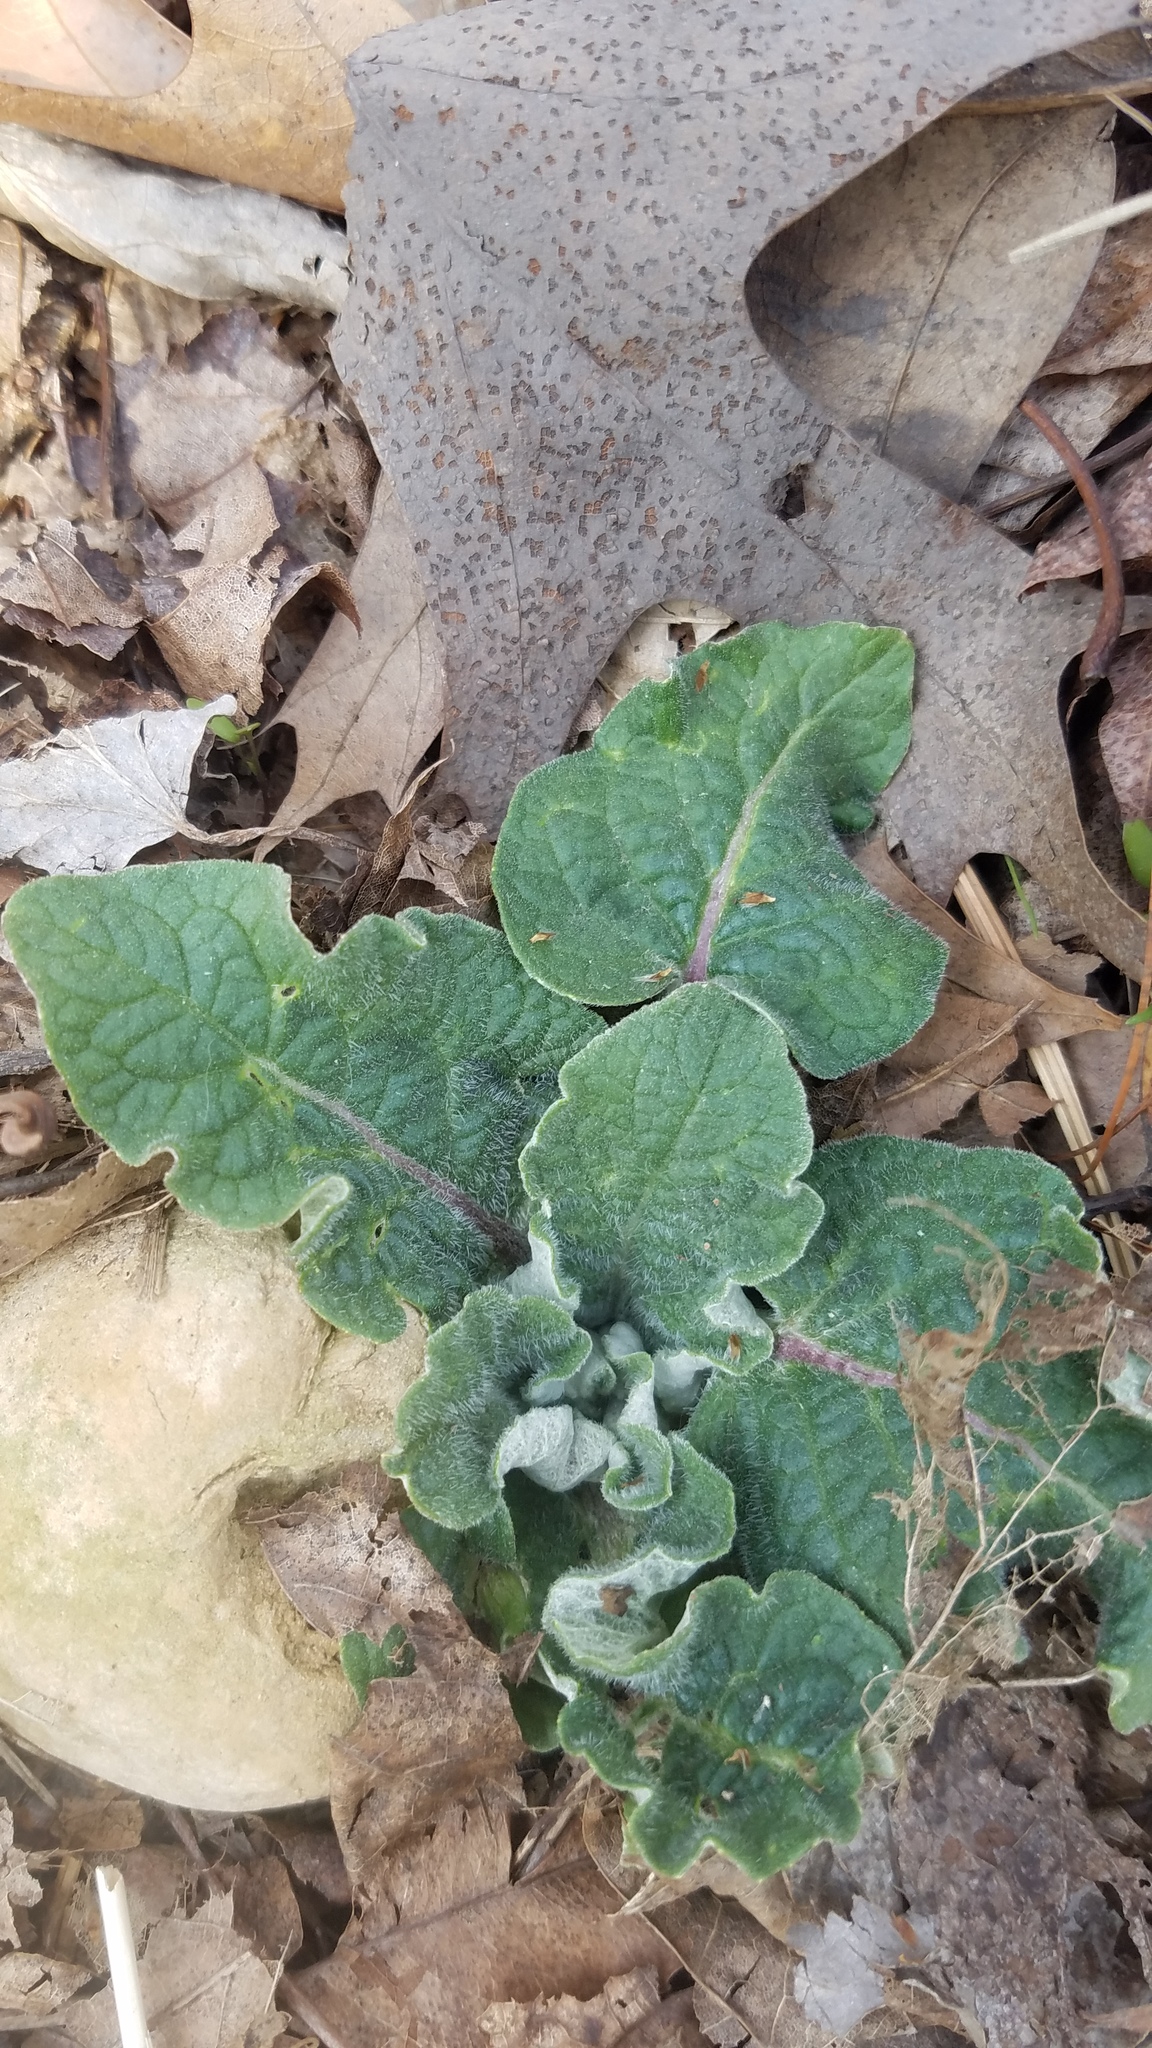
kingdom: Plantae
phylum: Tracheophyta
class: Magnoliopsida
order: Asterales
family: Asteraceae
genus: Arctium
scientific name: Arctium
